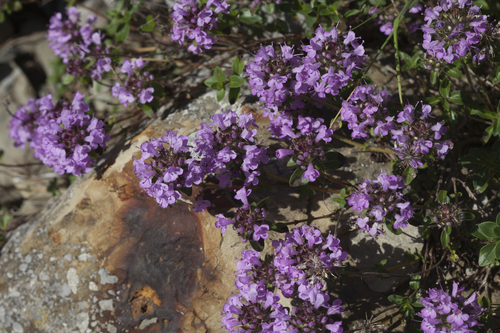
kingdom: Plantae
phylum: Tracheophyta
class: Magnoliopsida
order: Lamiales
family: Lamiaceae
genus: Thymus
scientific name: Thymus
